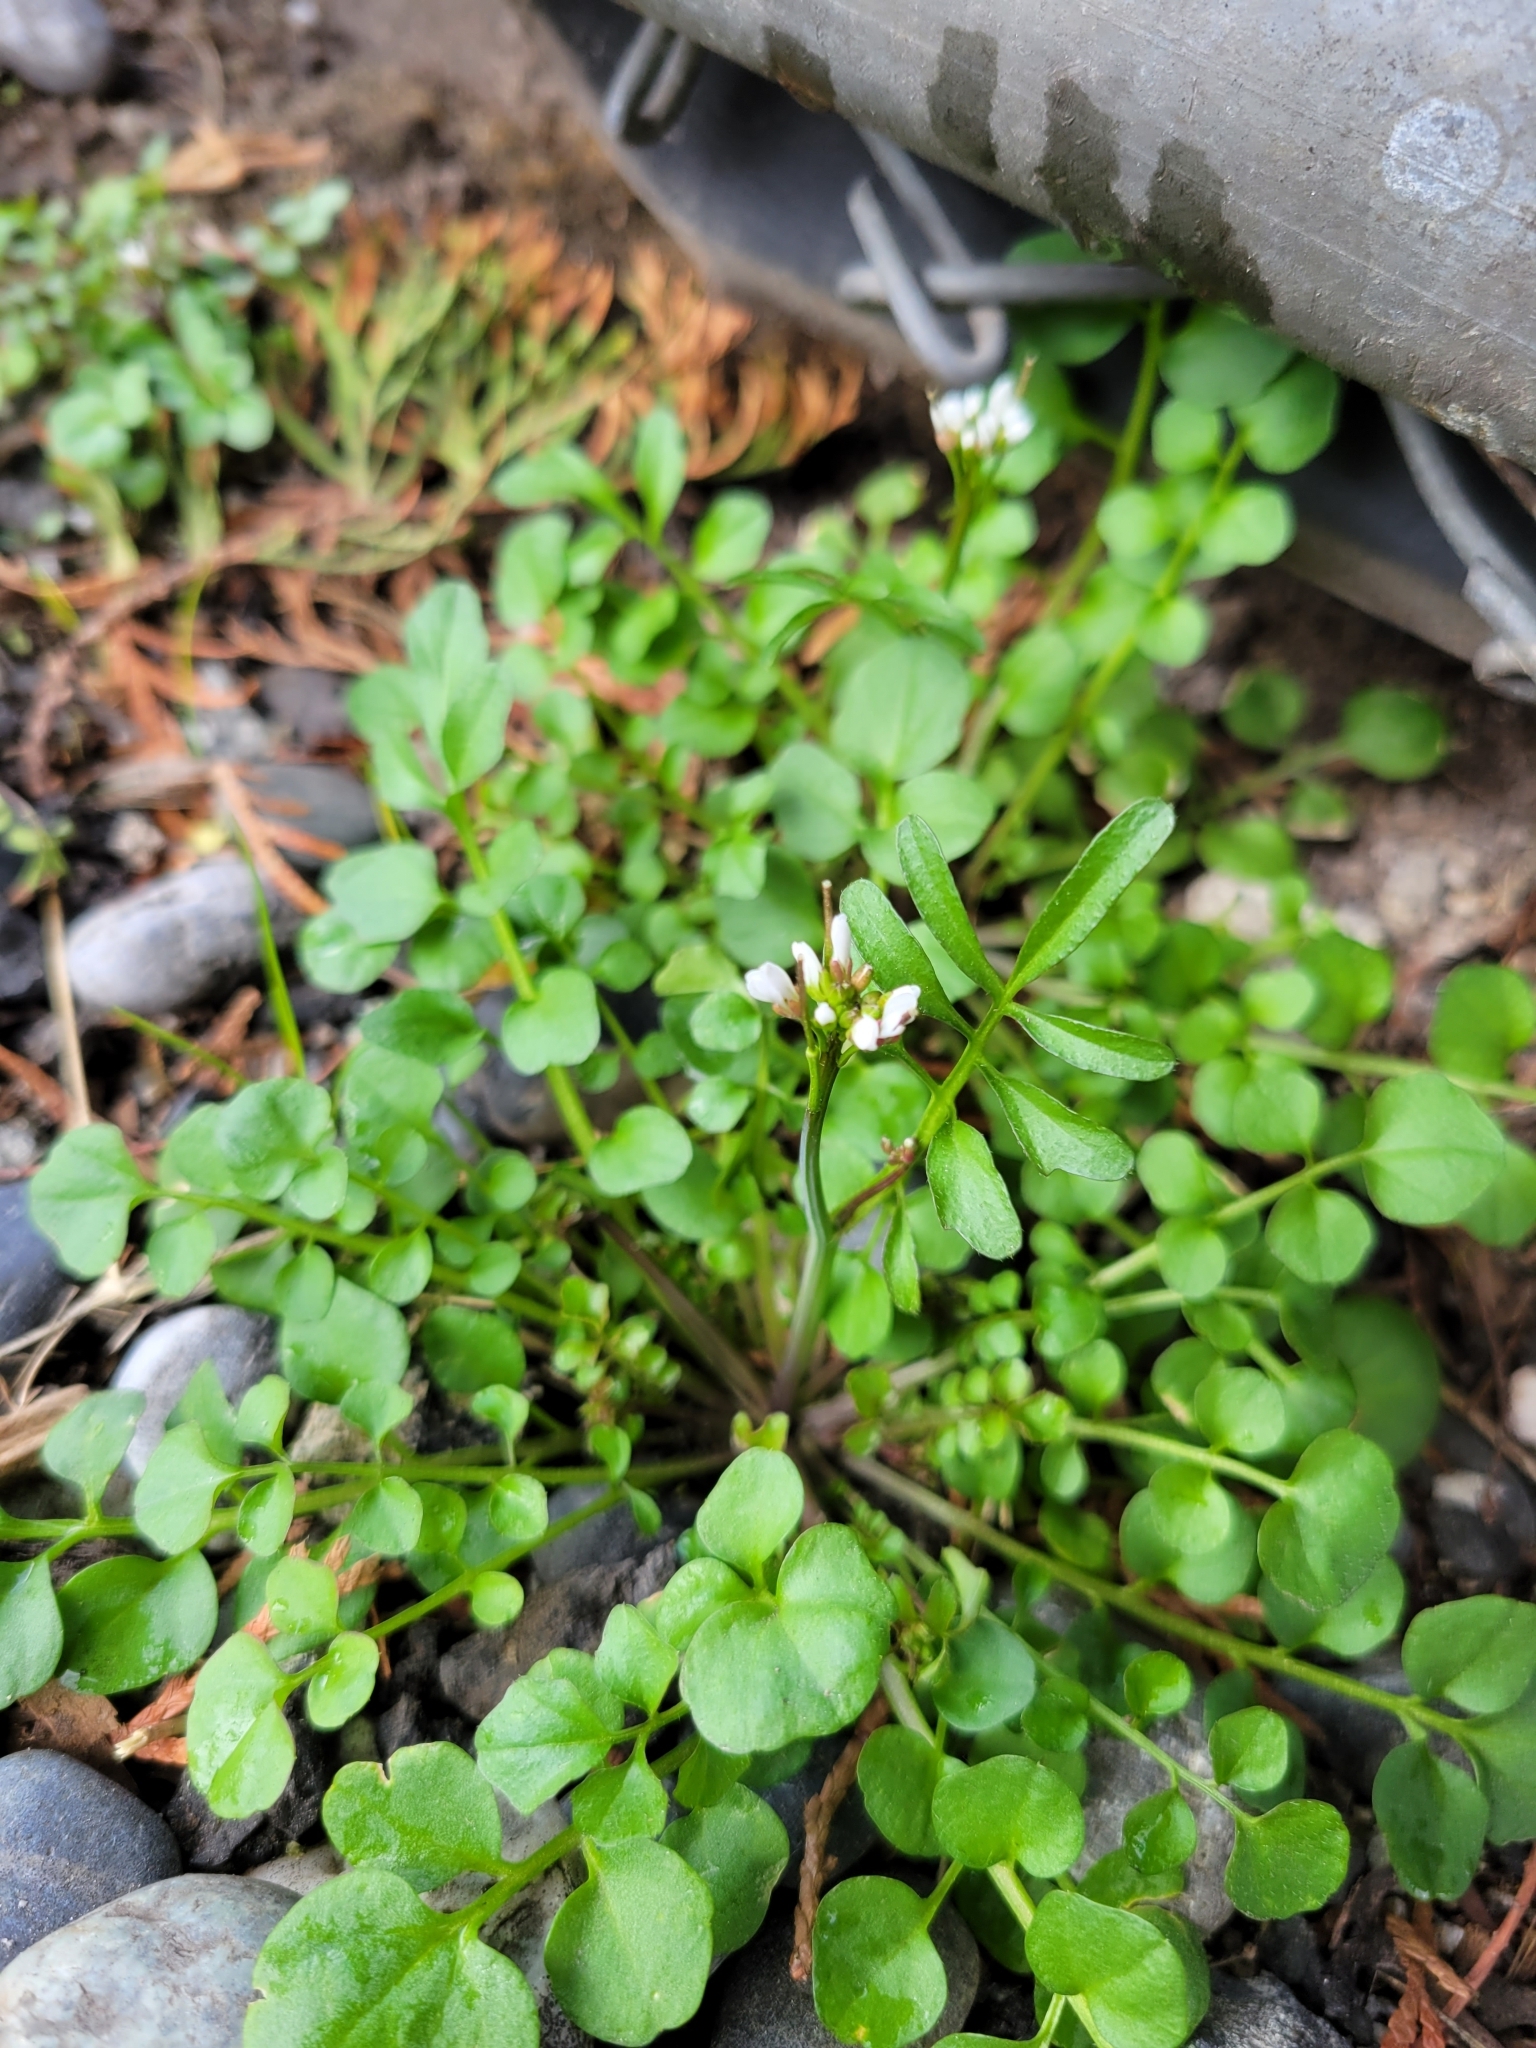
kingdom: Plantae
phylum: Tracheophyta
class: Magnoliopsida
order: Brassicales
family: Brassicaceae
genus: Cardamine
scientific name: Cardamine hirsuta
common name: Hairy bittercress
